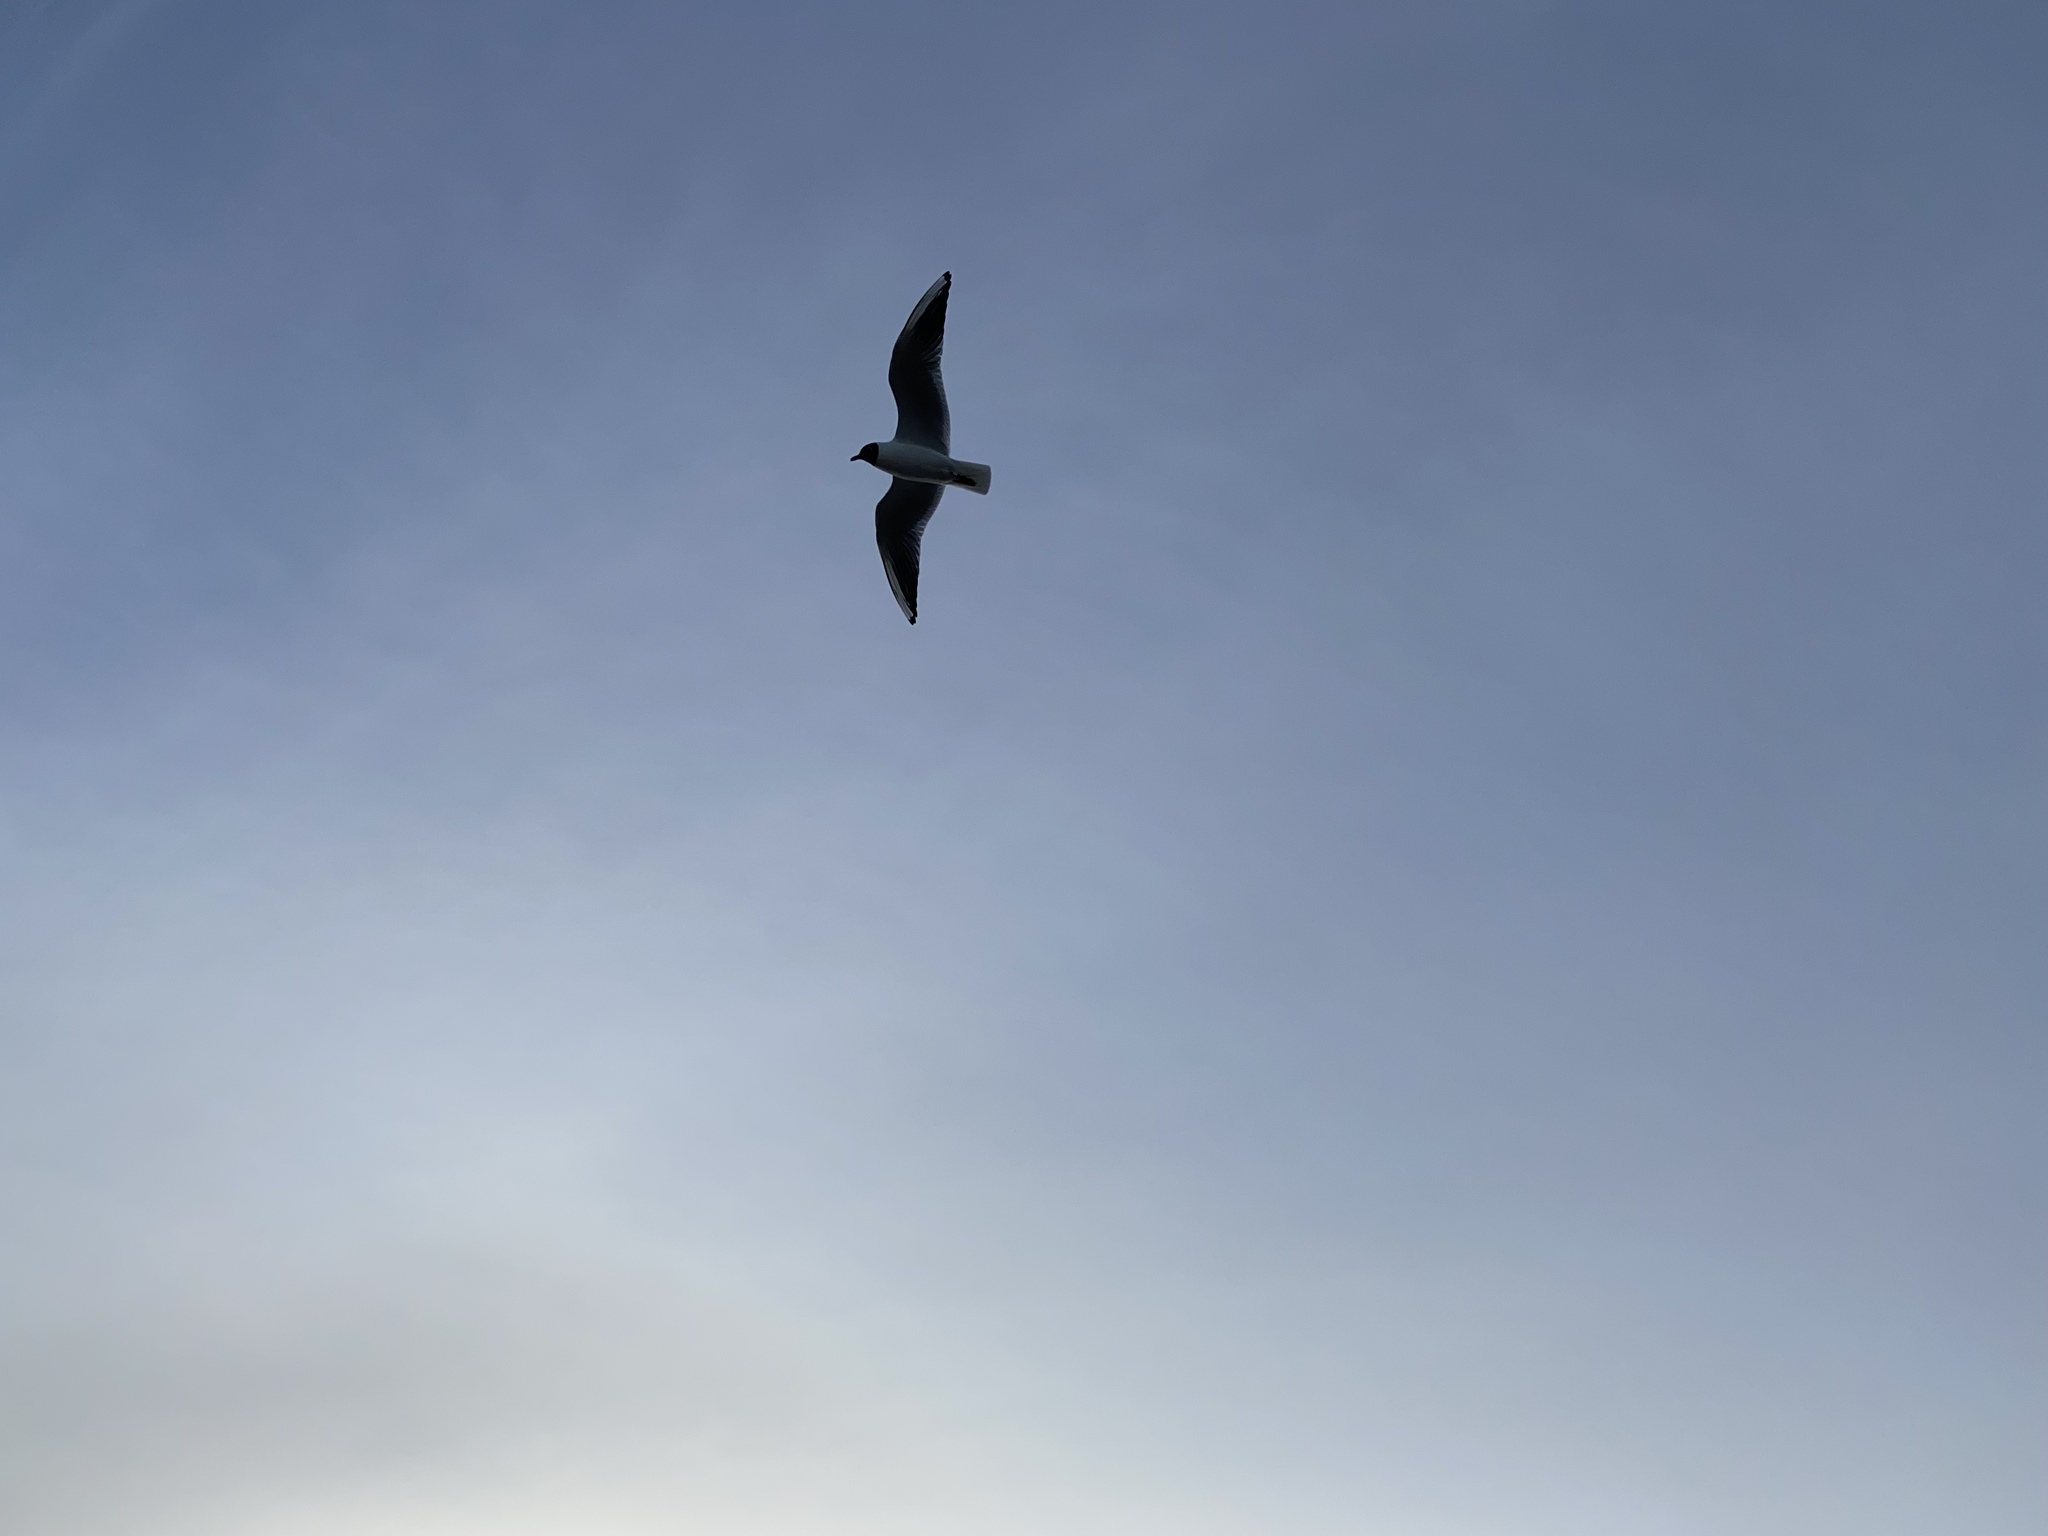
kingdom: Animalia
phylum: Chordata
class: Aves
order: Charadriiformes
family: Laridae
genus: Chroicocephalus
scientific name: Chroicocephalus ridibundus
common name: Black-headed gull
